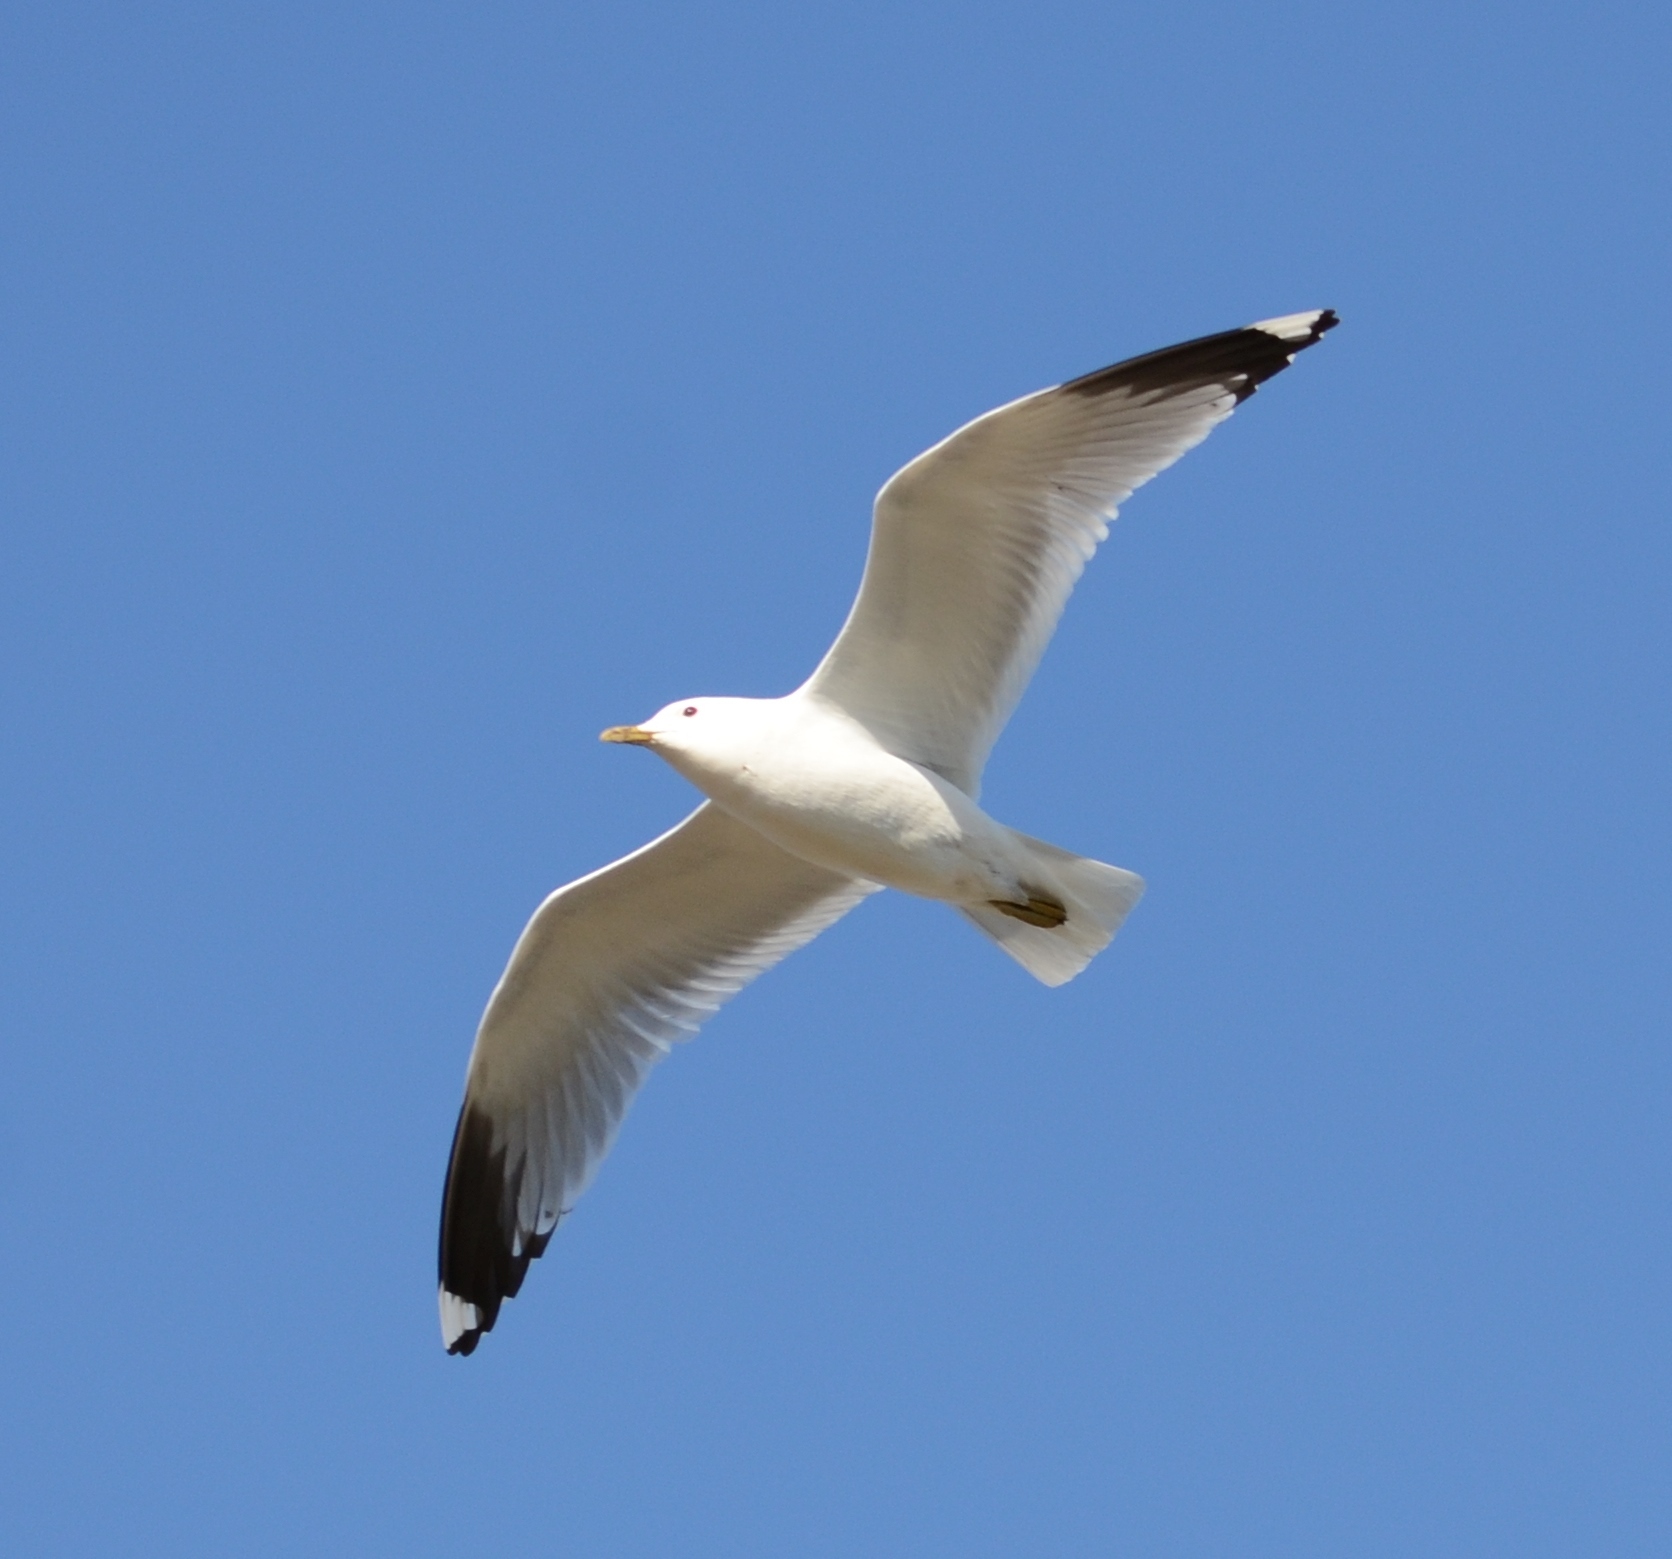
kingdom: Animalia
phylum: Chordata
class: Aves
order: Charadriiformes
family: Laridae
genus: Larus
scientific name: Larus canus
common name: Mew gull
